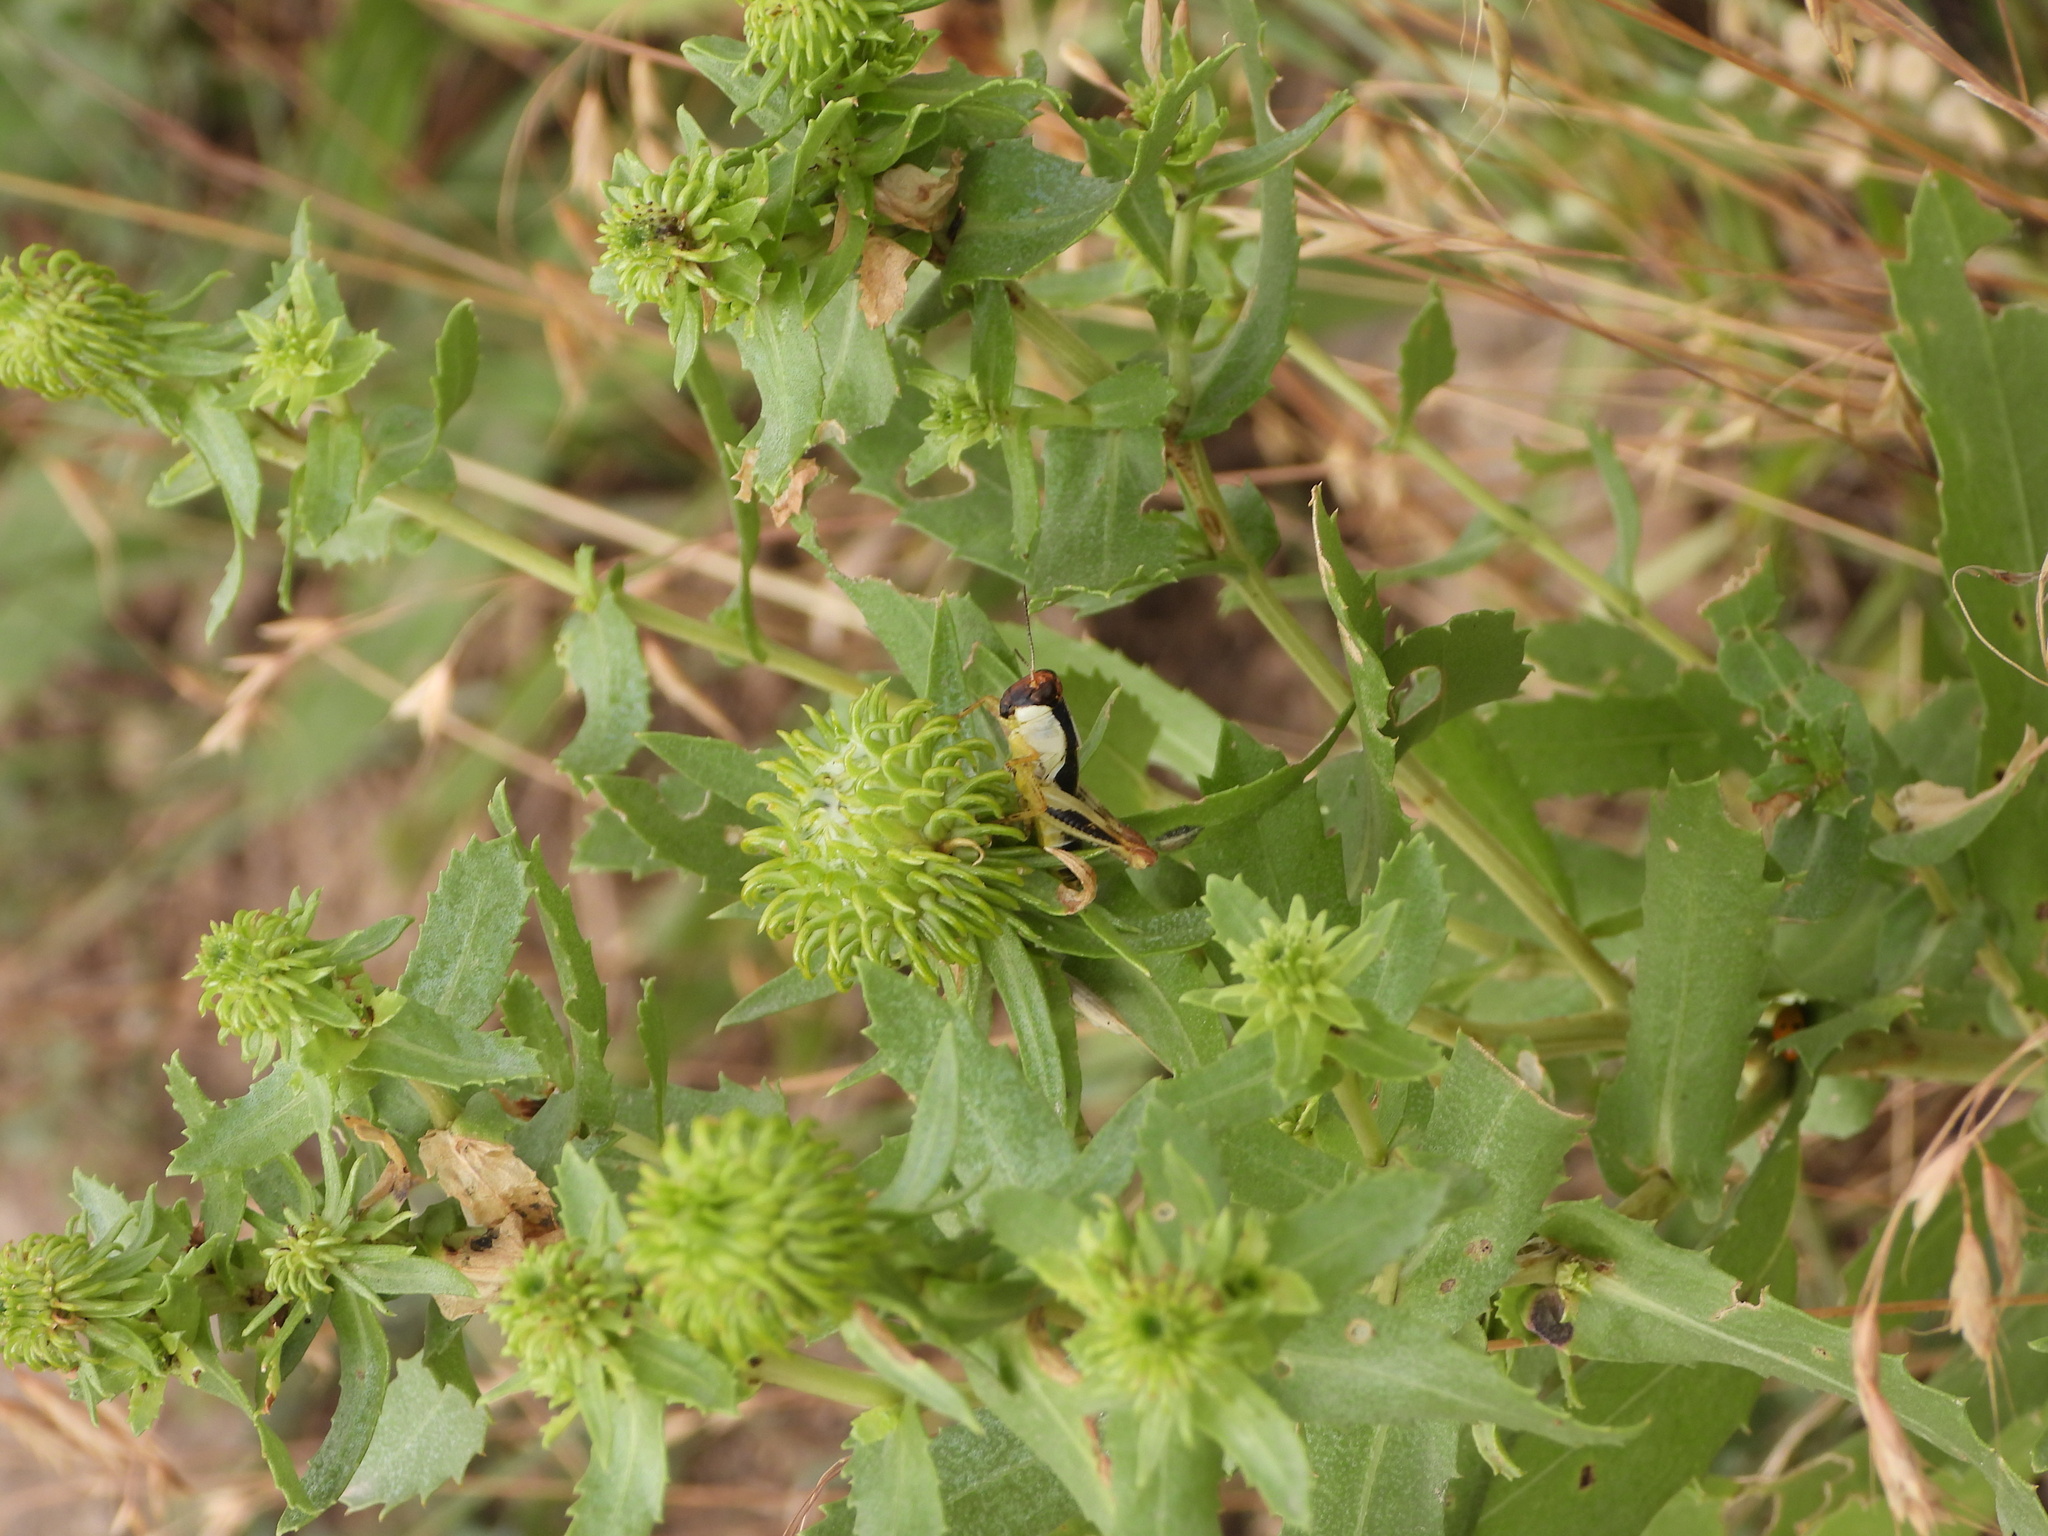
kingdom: Animalia
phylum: Arthropoda
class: Insecta
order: Orthoptera
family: Acrididae
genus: Melanoplus
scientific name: Melanoplus keeleri
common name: Keeler grasshopper
